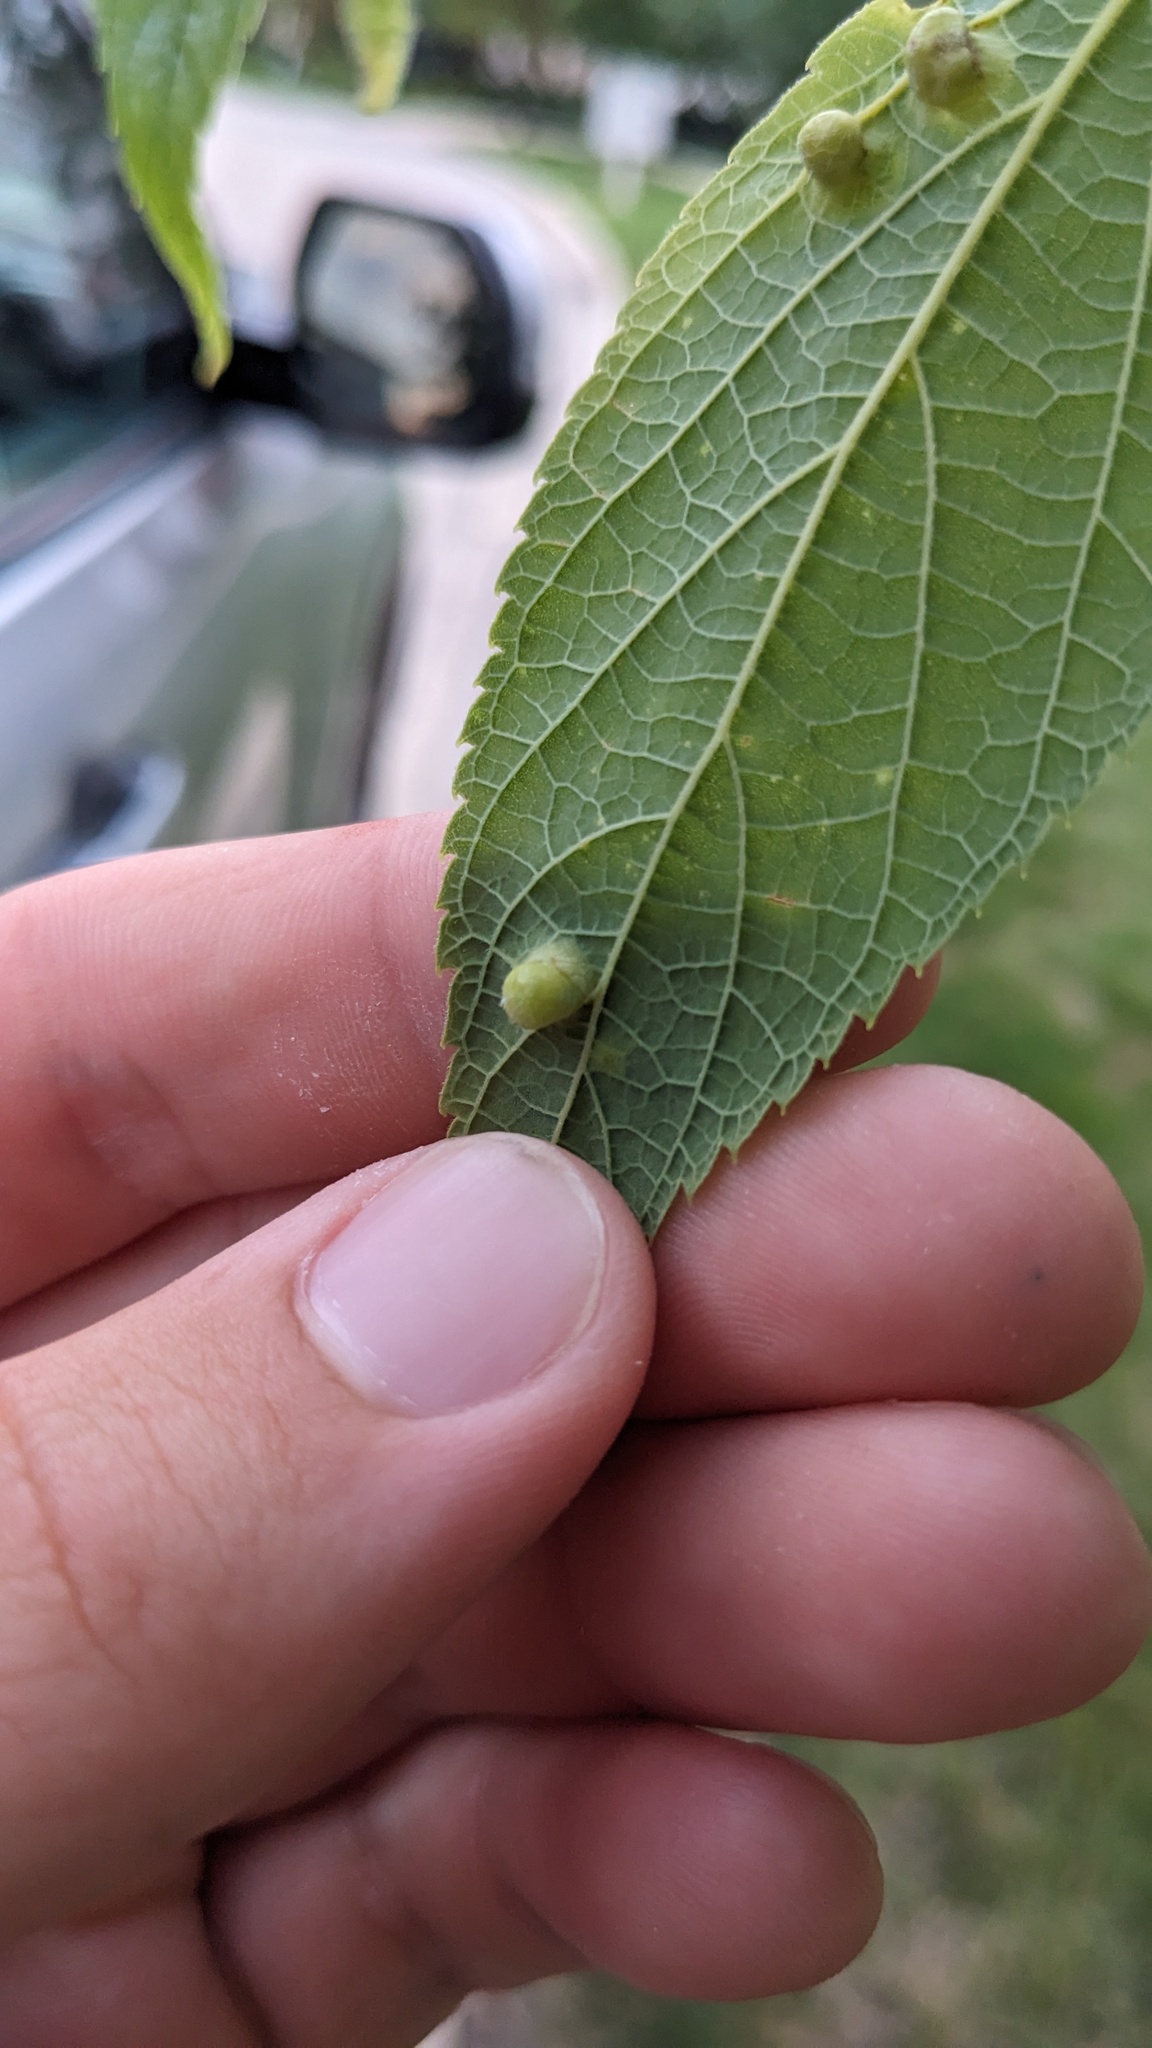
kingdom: Animalia
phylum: Arthropoda
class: Insecta
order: Hemiptera
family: Aphalaridae
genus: Pachypsylla
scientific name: Pachypsylla celtidismamma
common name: Hackberry nipplegall psyllid
